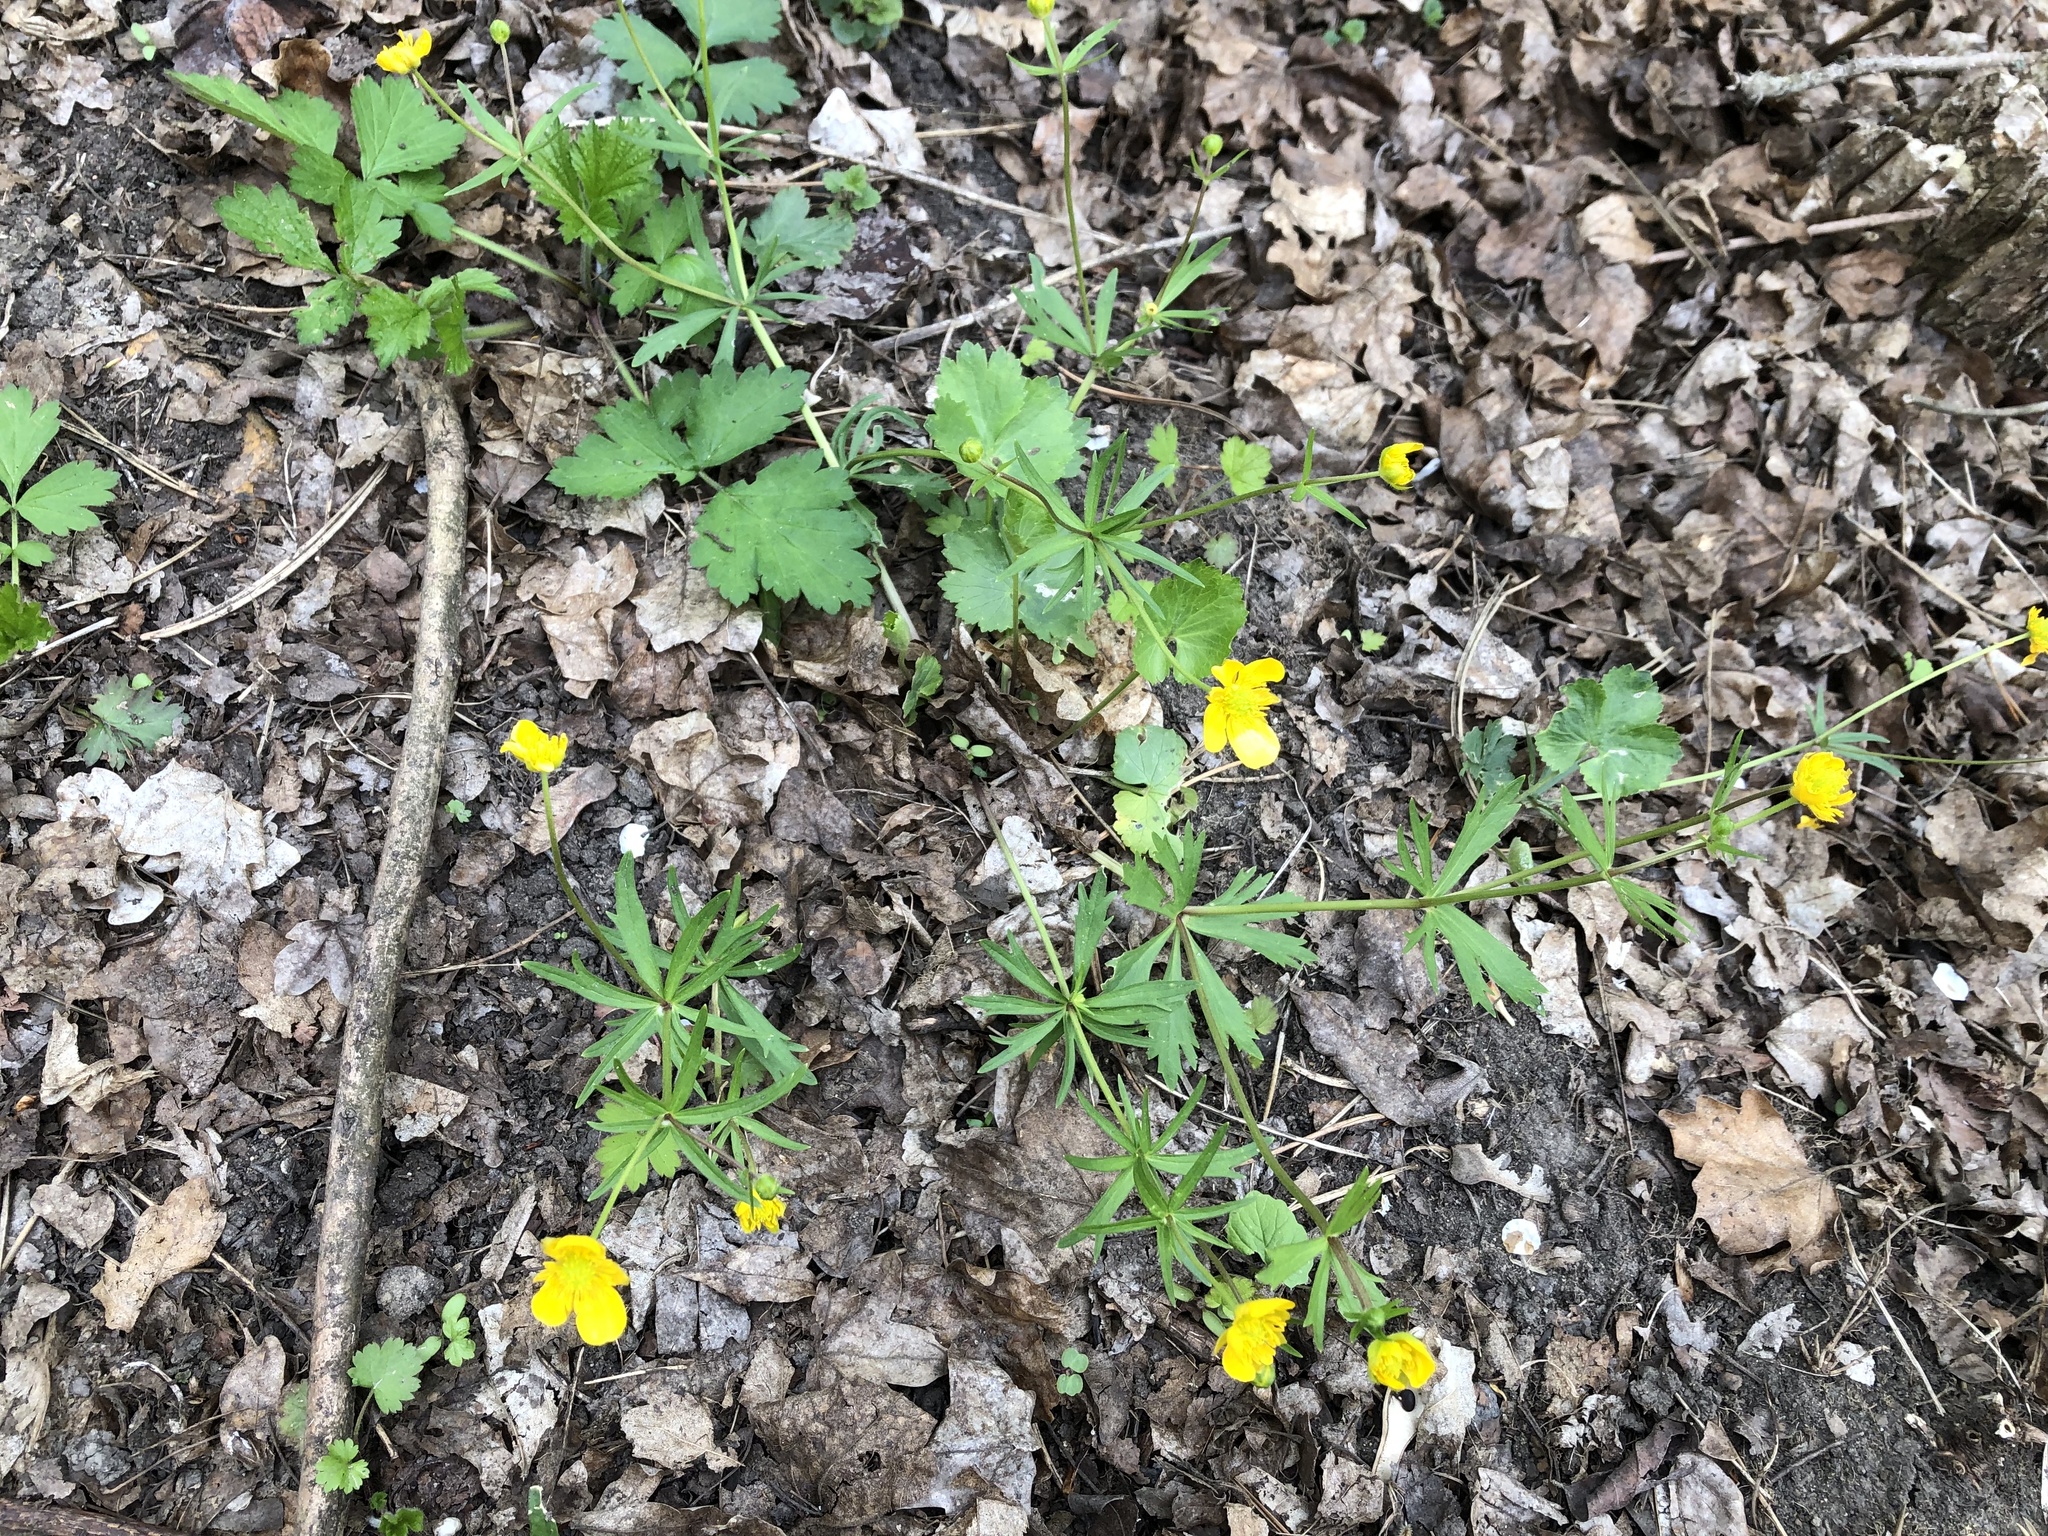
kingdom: Plantae
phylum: Tracheophyta
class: Magnoliopsida
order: Ranunculales
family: Ranunculaceae
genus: Ranunculus
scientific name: Ranunculus auricomus
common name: Goldilocks buttercup
